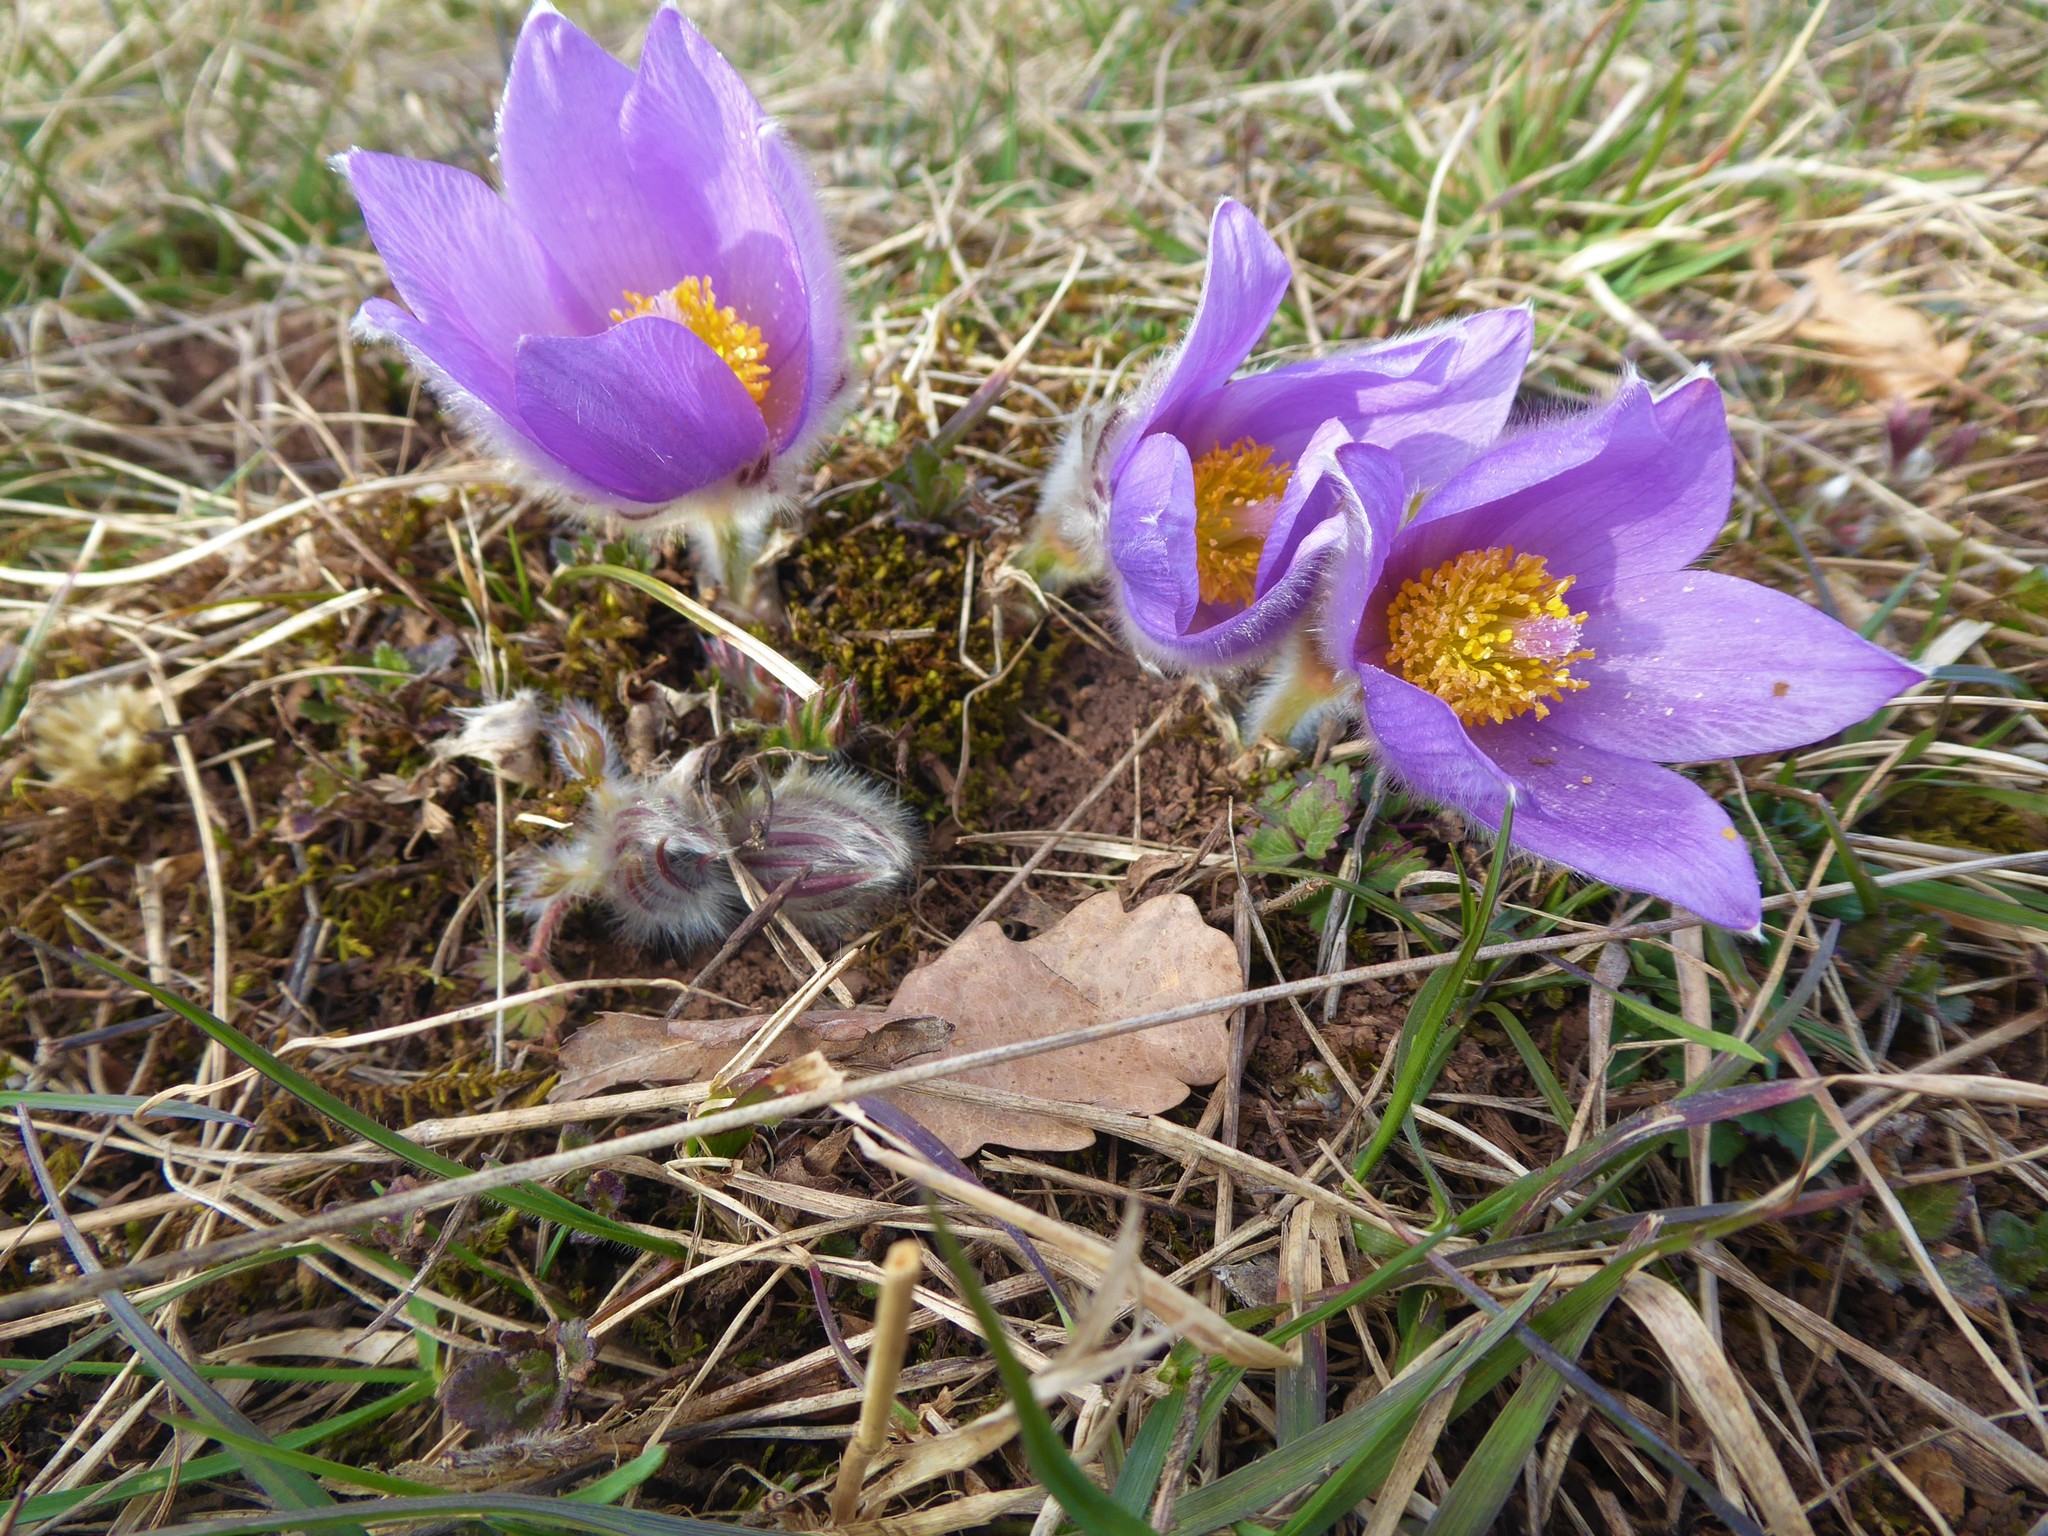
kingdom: Plantae
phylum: Tracheophyta
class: Magnoliopsida
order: Ranunculales
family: Ranunculaceae
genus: Pulsatilla
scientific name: Pulsatilla grandis
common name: Greater pasque flower
